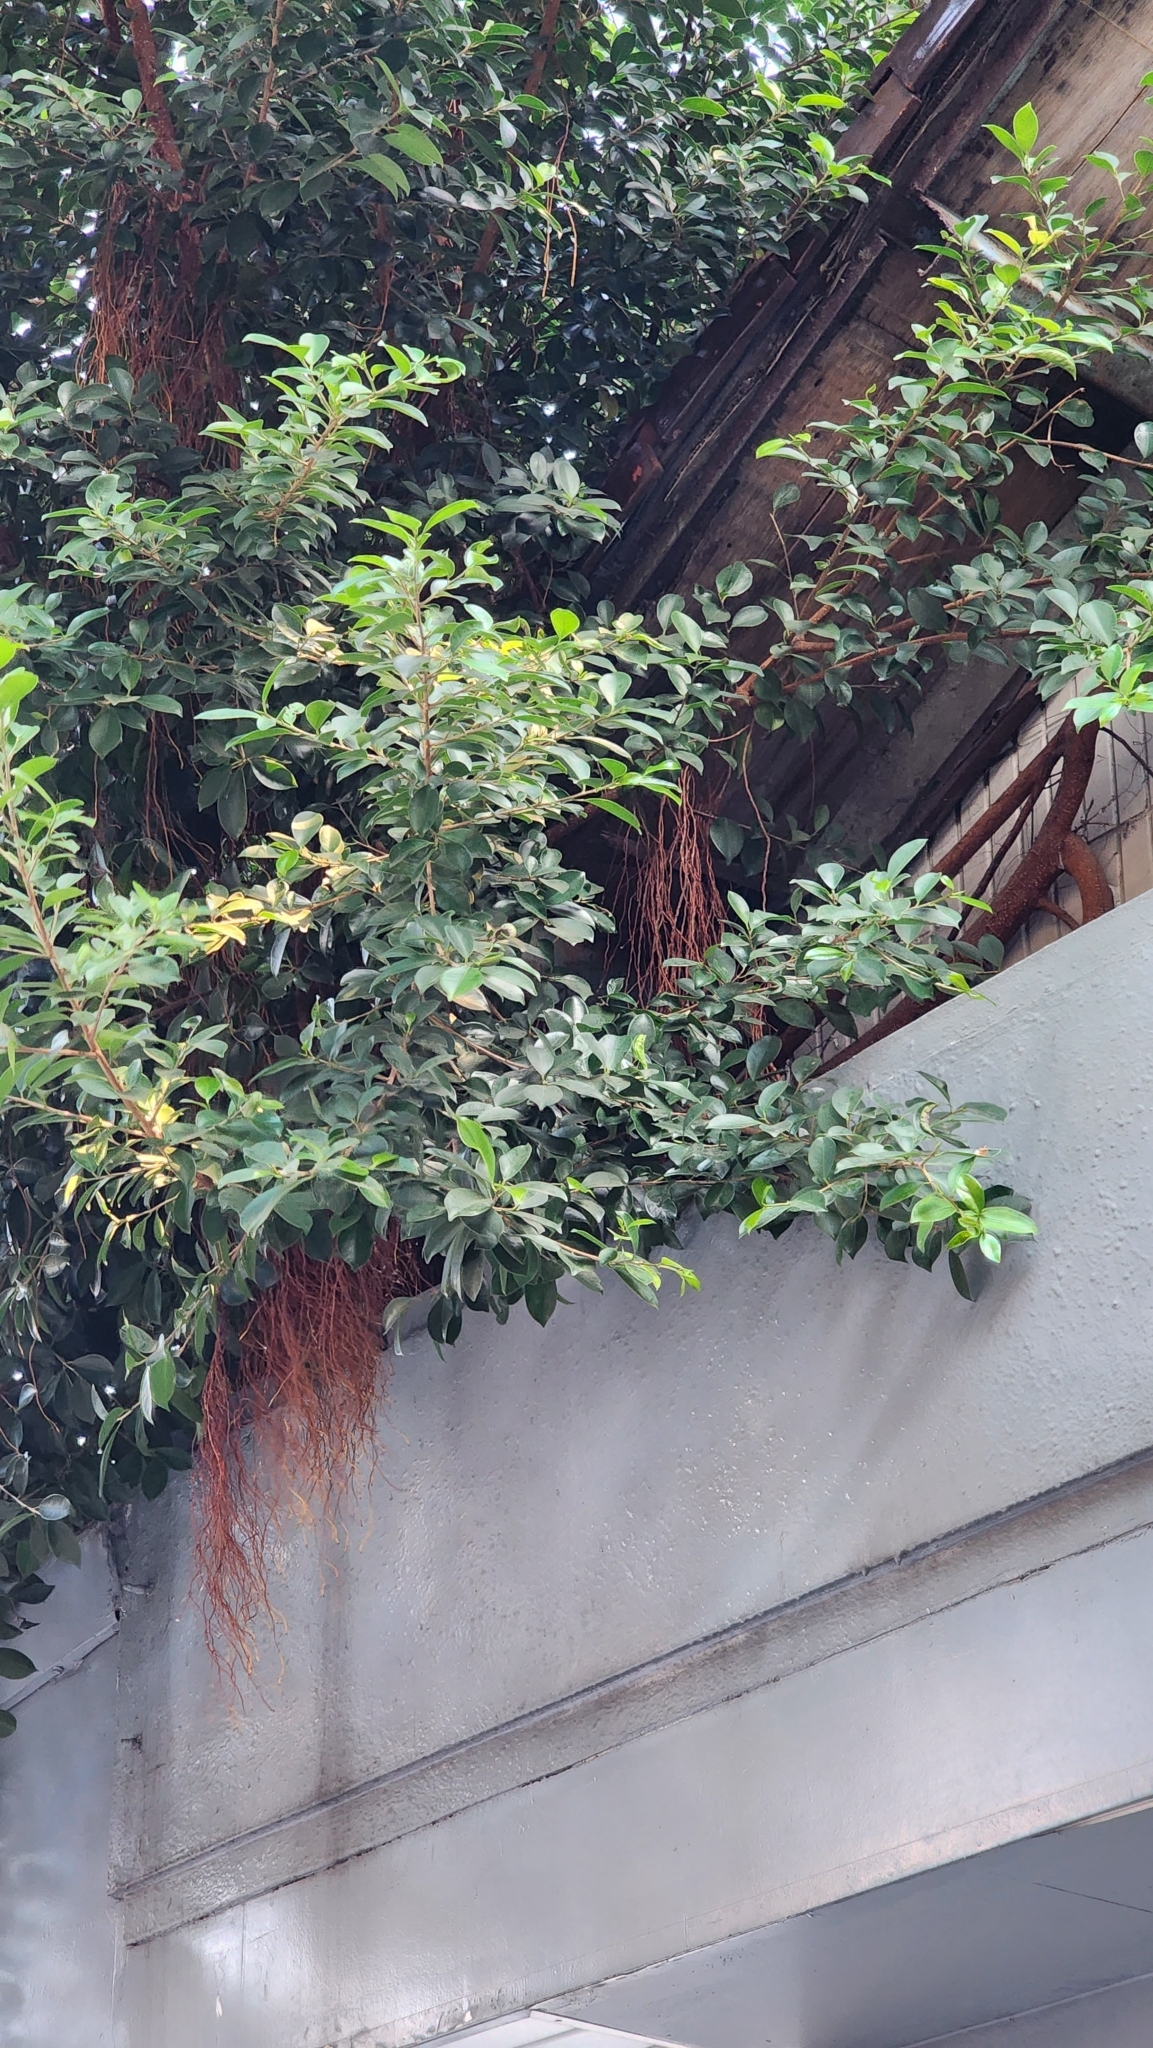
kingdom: Plantae
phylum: Tracheophyta
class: Magnoliopsida
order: Rosales
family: Moraceae
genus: Ficus
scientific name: Ficus microcarpa
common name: Chinese banyan
